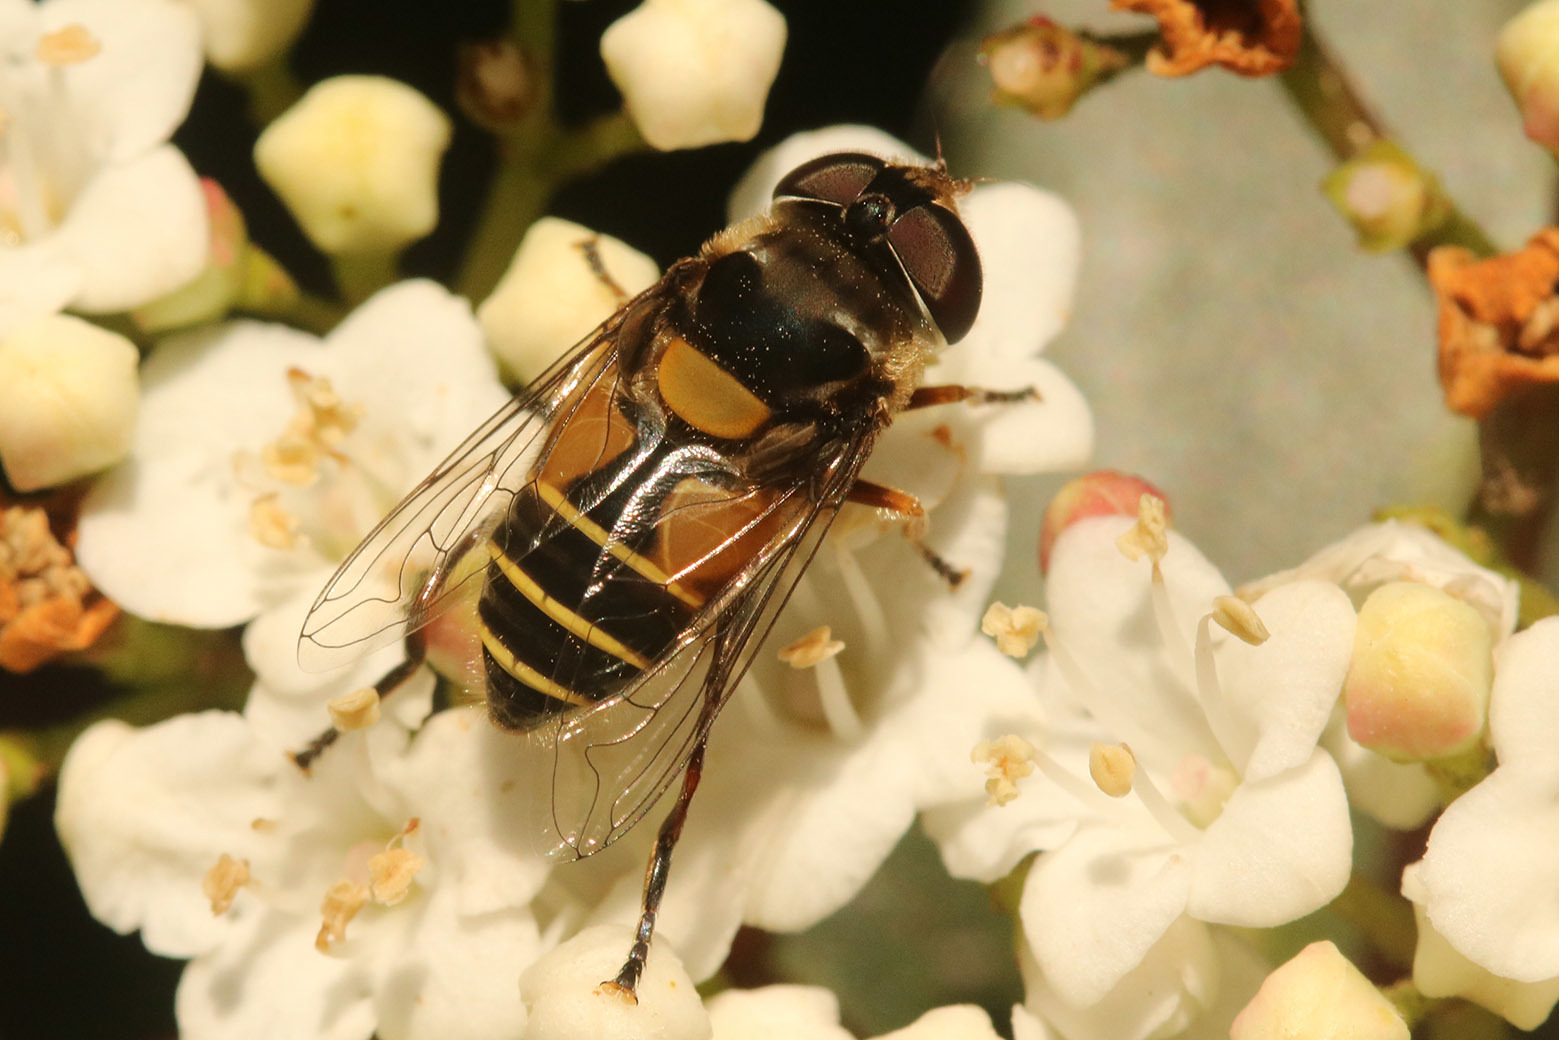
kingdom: Animalia
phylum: Arthropoda
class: Insecta
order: Diptera
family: Syrphidae
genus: Palpada
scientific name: Palpada
